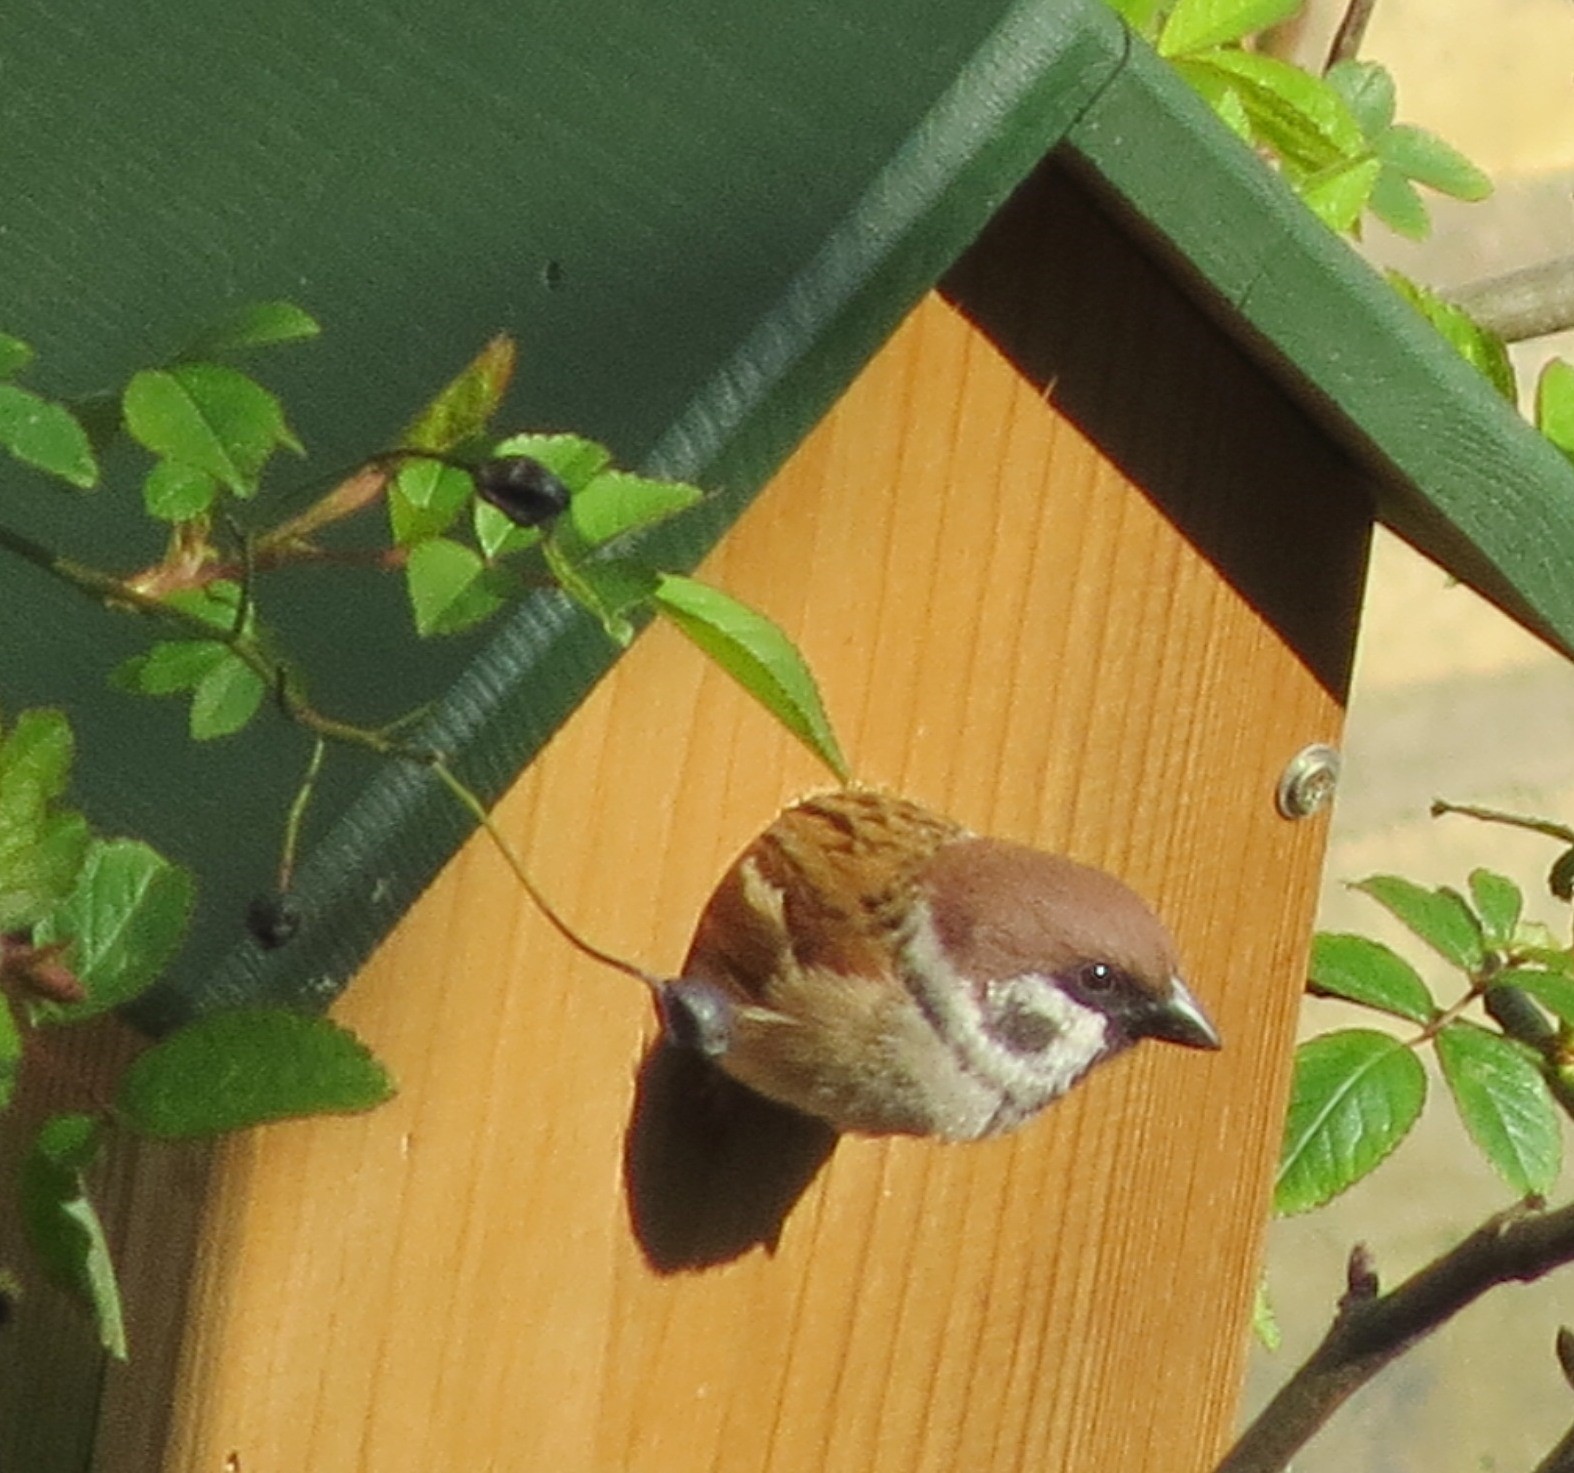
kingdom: Animalia
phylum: Chordata
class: Aves
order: Passeriformes
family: Passeridae
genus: Passer
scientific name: Passer montanus
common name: Eurasian tree sparrow
